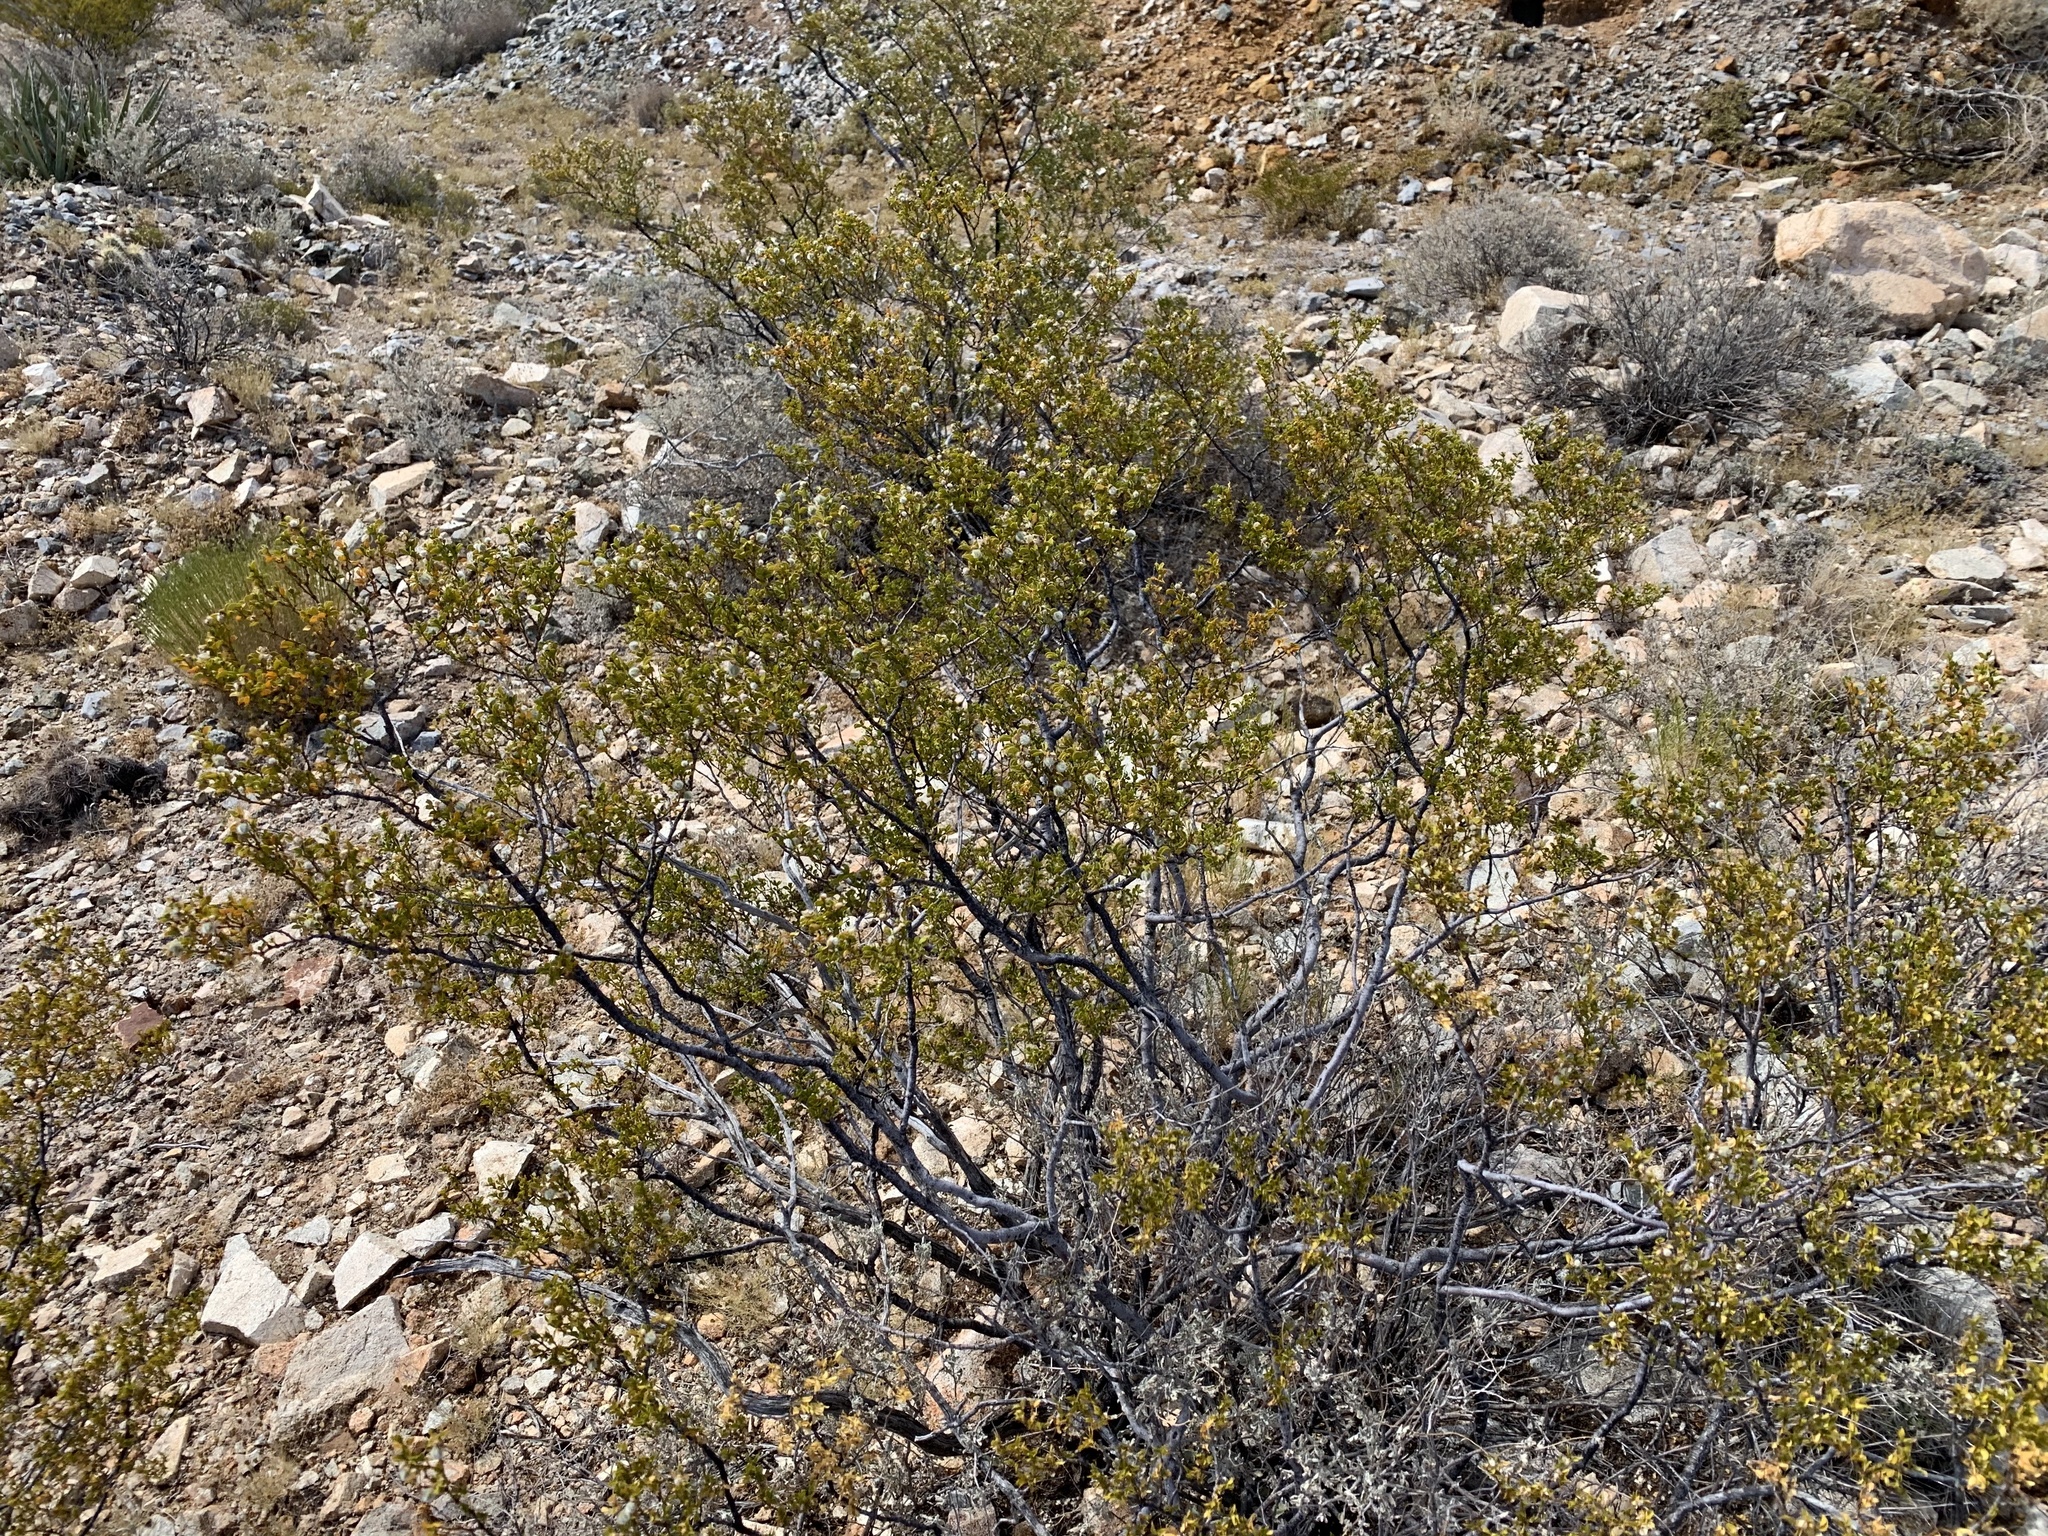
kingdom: Plantae
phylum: Tracheophyta
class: Magnoliopsida
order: Zygophyllales
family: Zygophyllaceae
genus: Larrea
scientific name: Larrea tridentata
